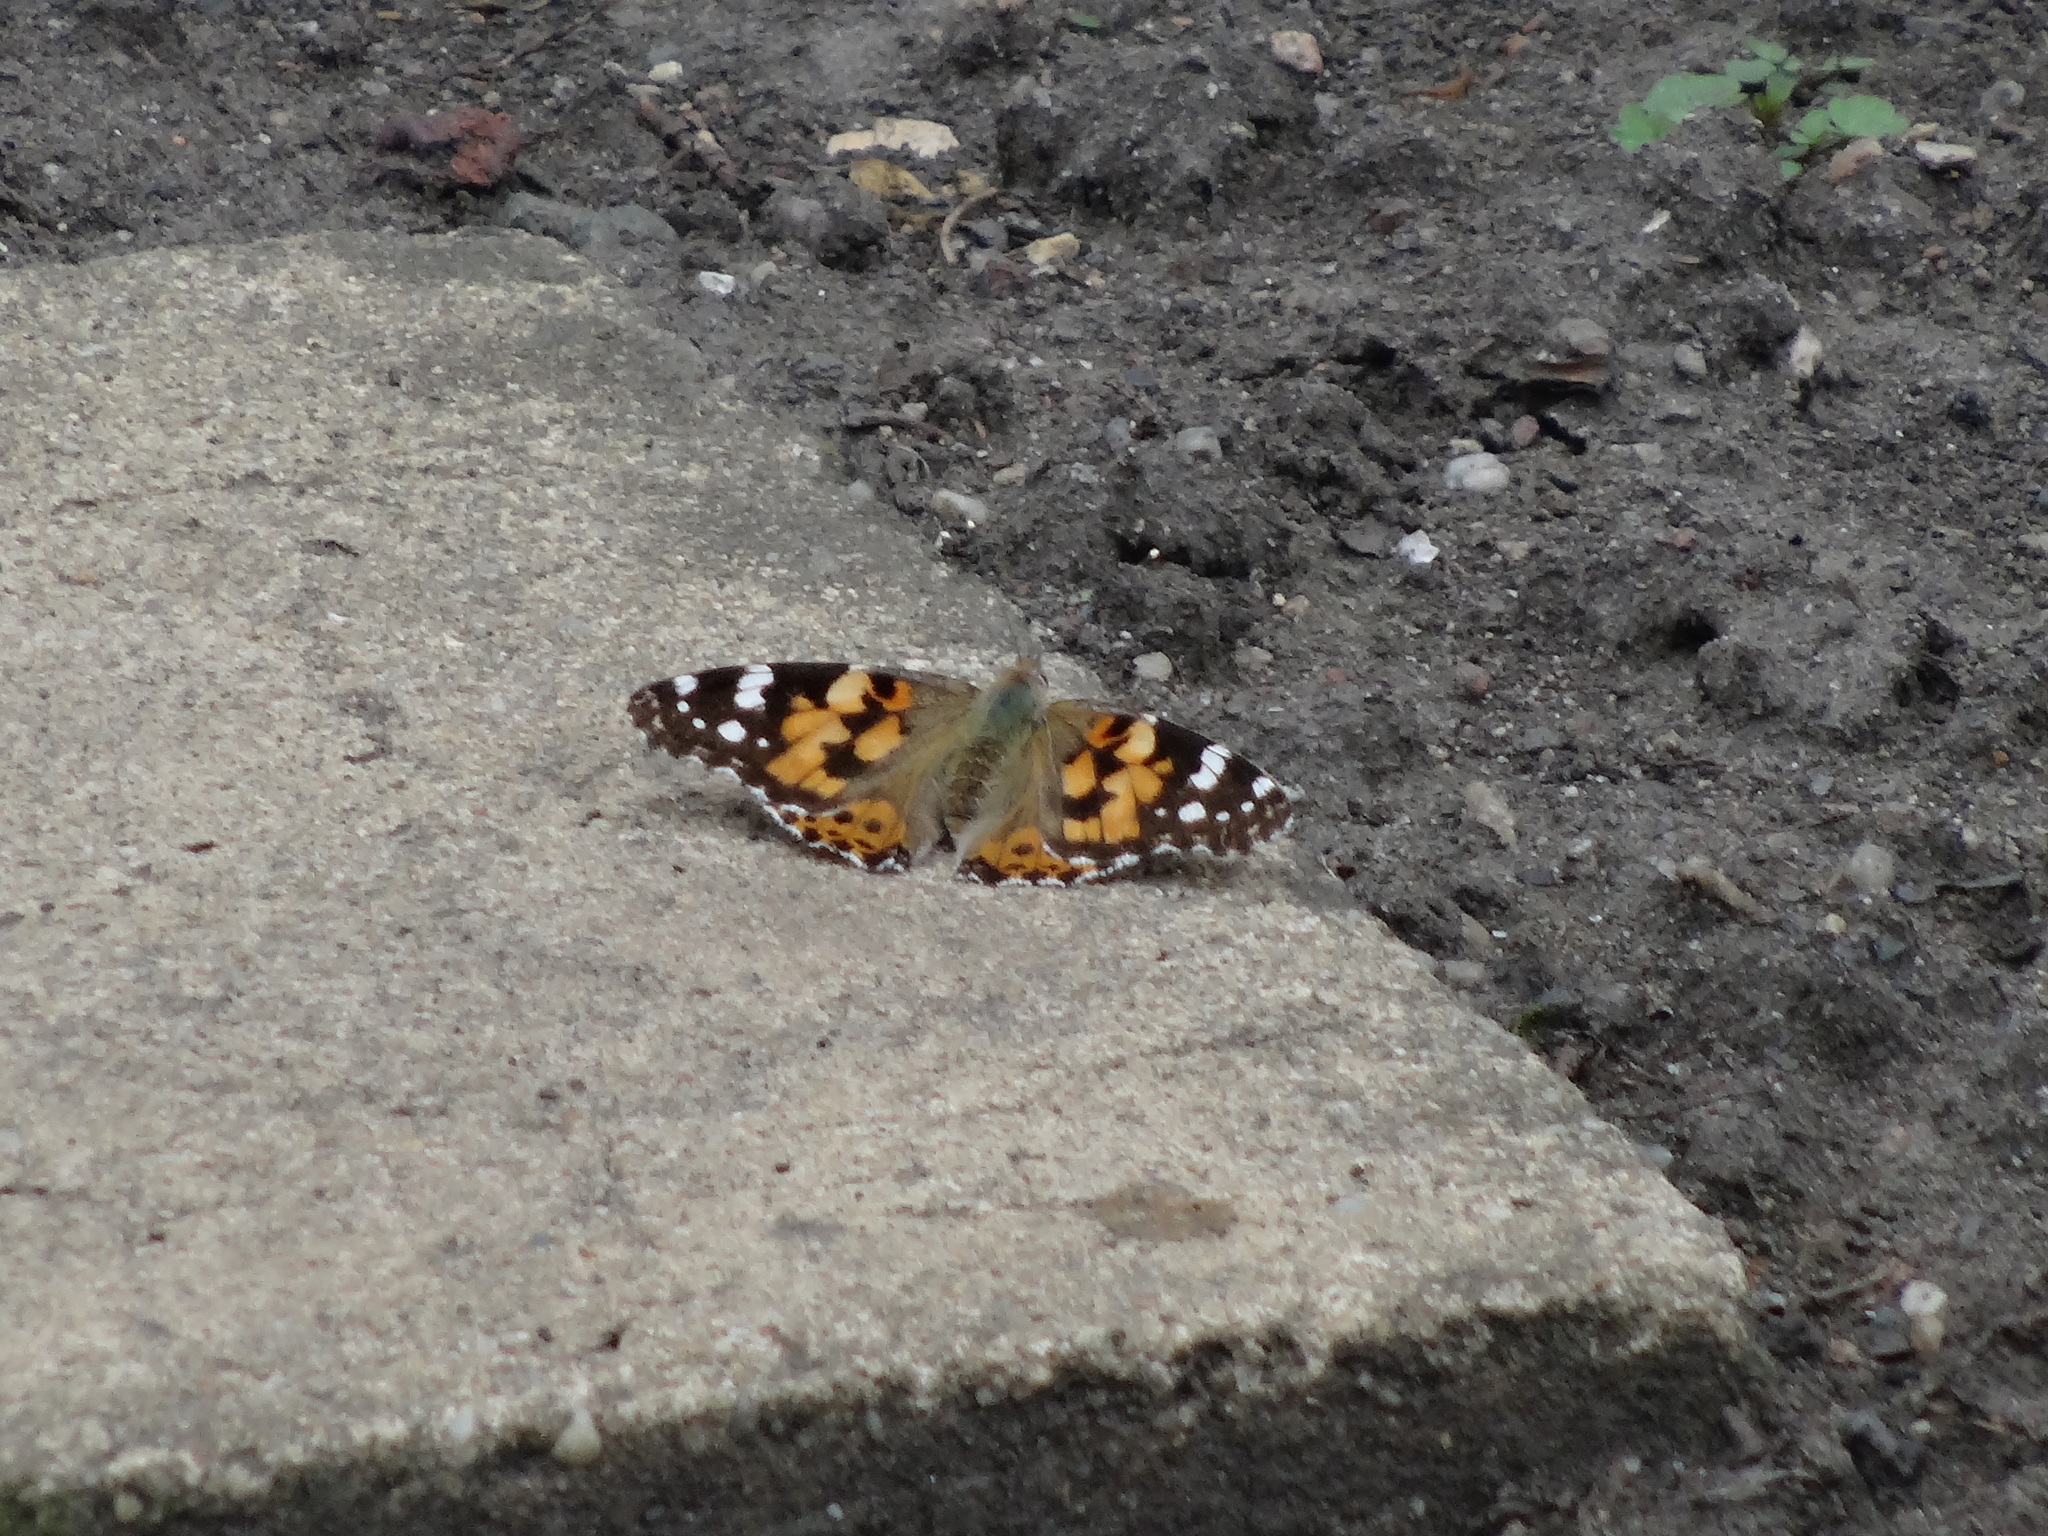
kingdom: Animalia
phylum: Arthropoda
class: Insecta
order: Lepidoptera
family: Nymphalidae
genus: Vanessa
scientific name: Vanessa cardui
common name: Painted lady
